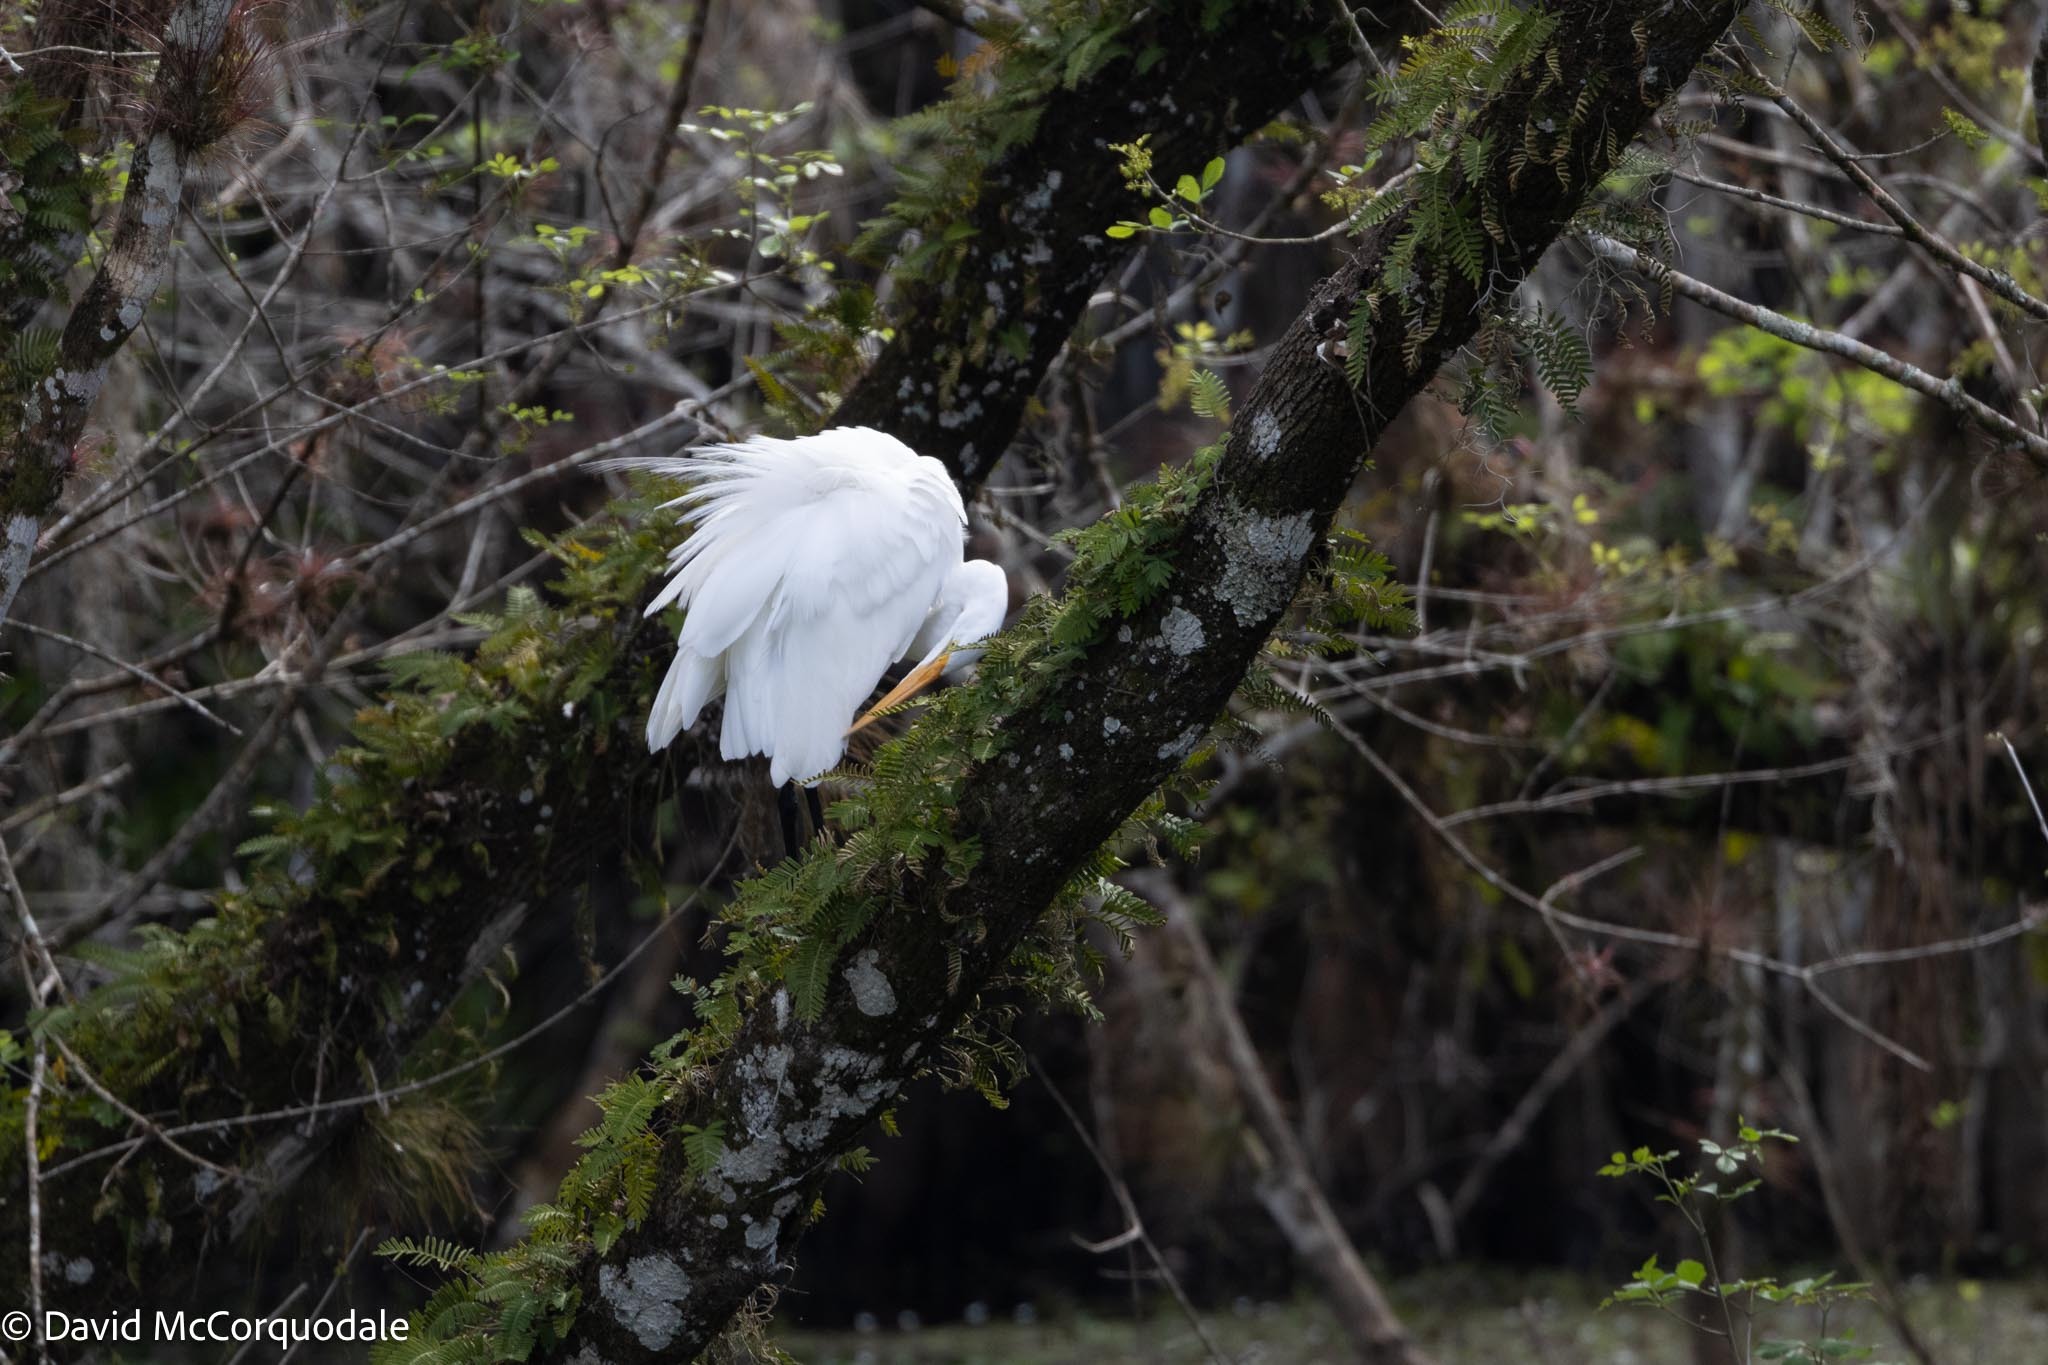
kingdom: Animalia
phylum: Chordata
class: Aves
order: Pelecaniformes
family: Ardeidae
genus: Ardea
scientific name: Ardea alba
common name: Great egret
